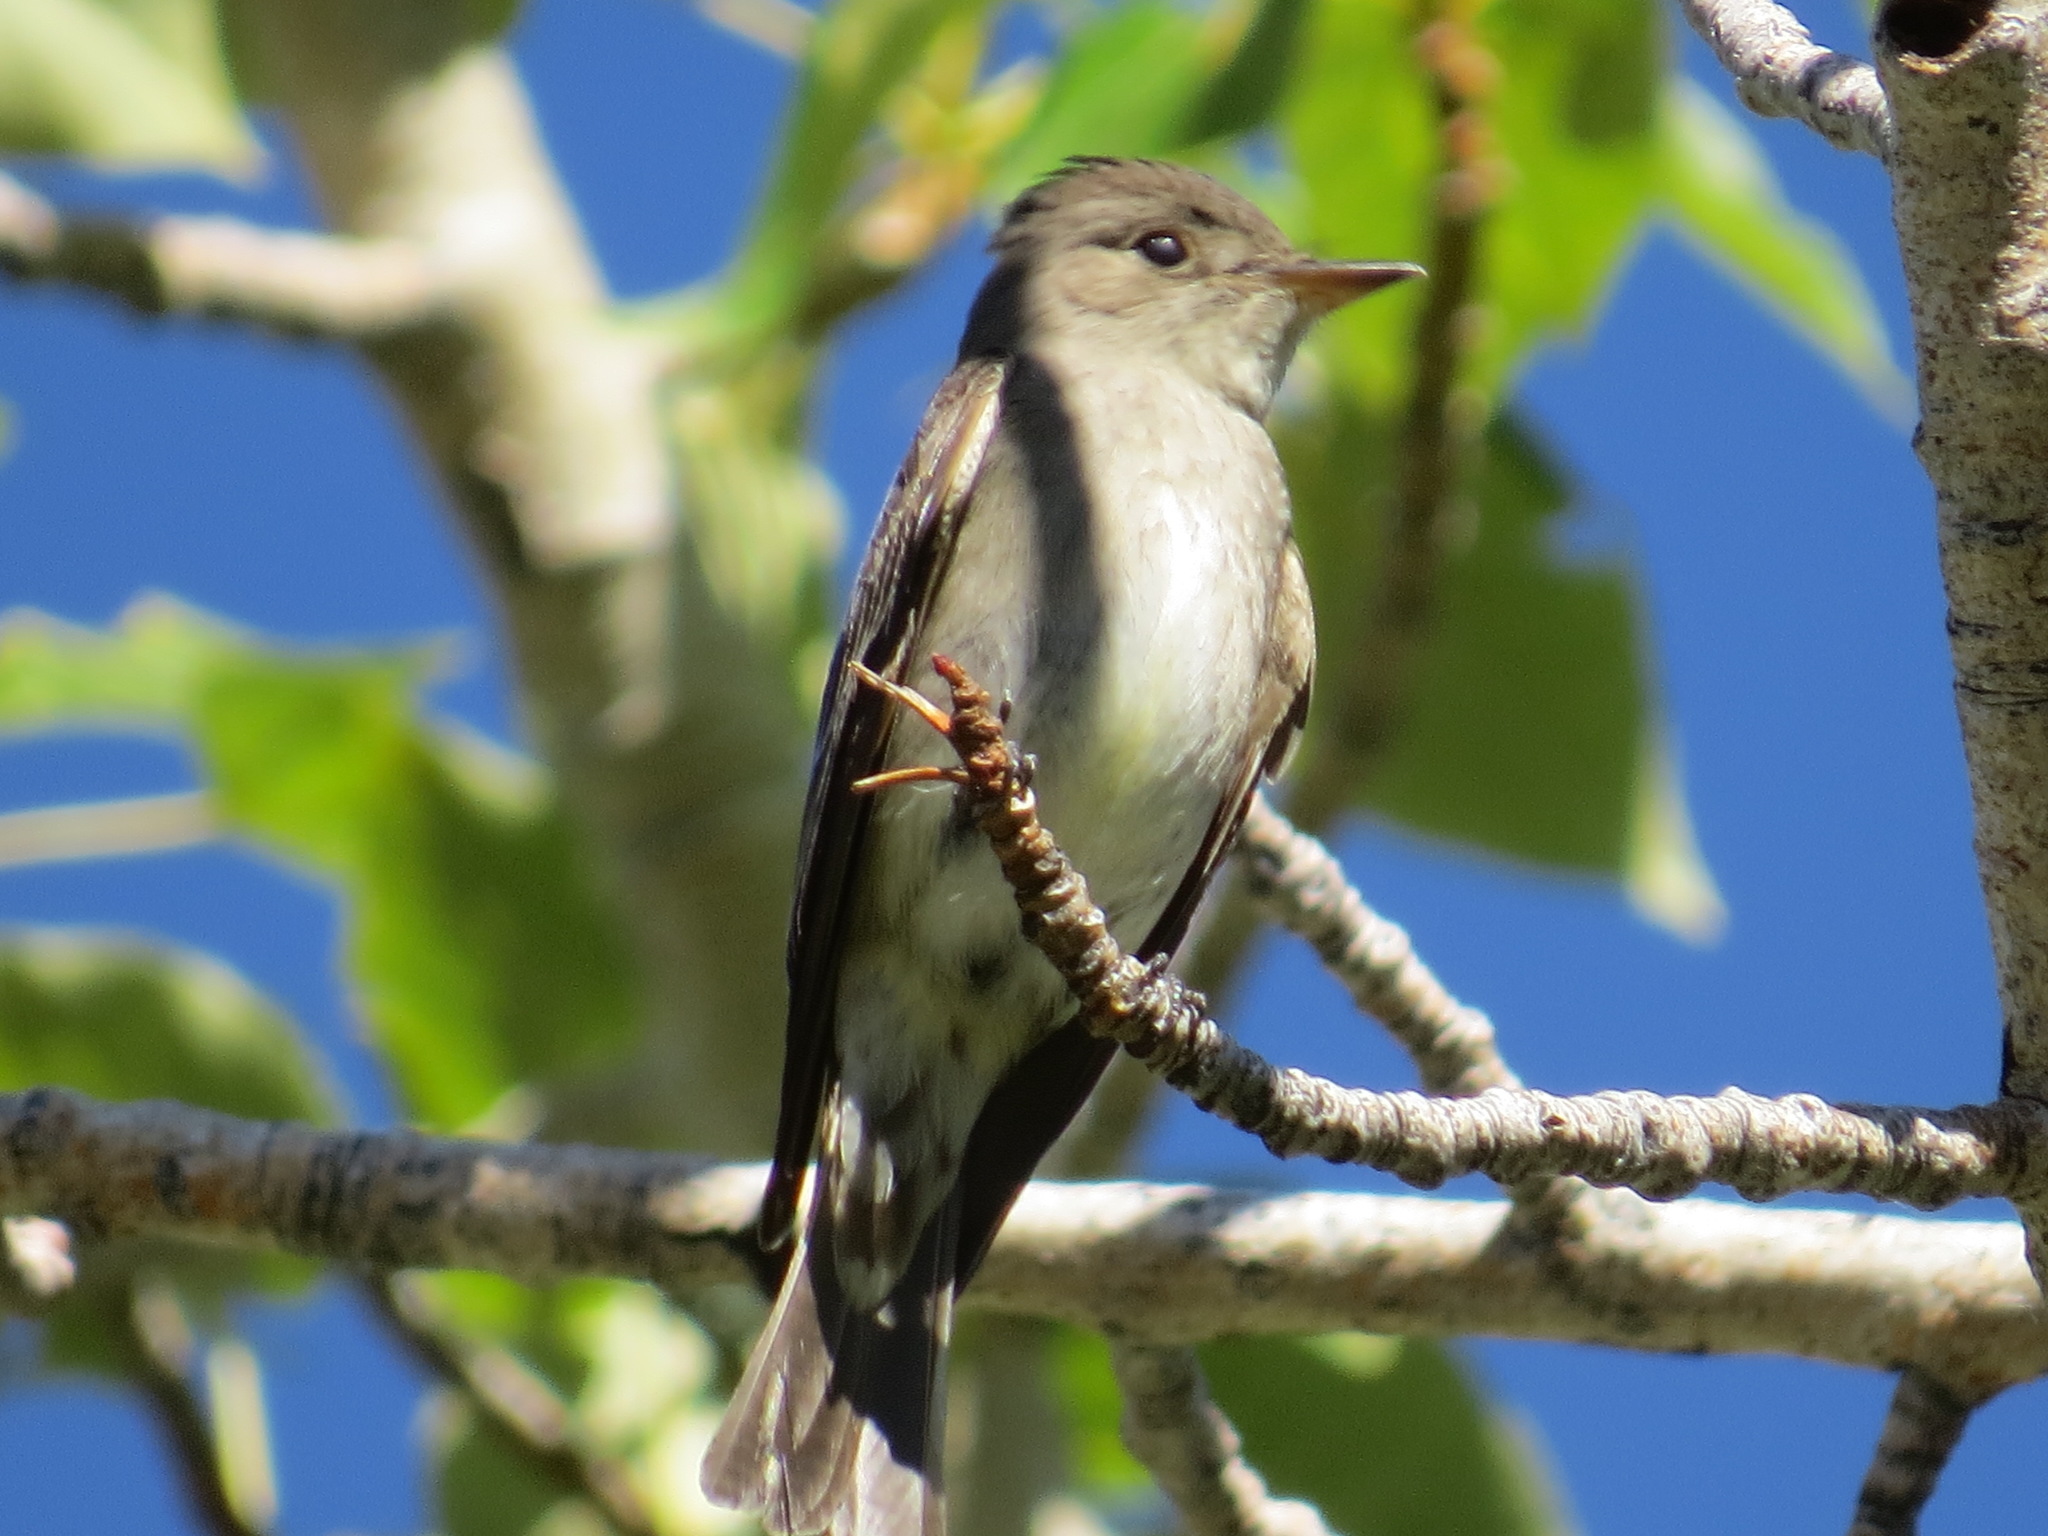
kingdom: Animalia
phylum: Chordata
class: Aves
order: Passeriformes
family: Tyrannidae
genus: Contopus
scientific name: Contopus sordidulus
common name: Western wood-pewee
